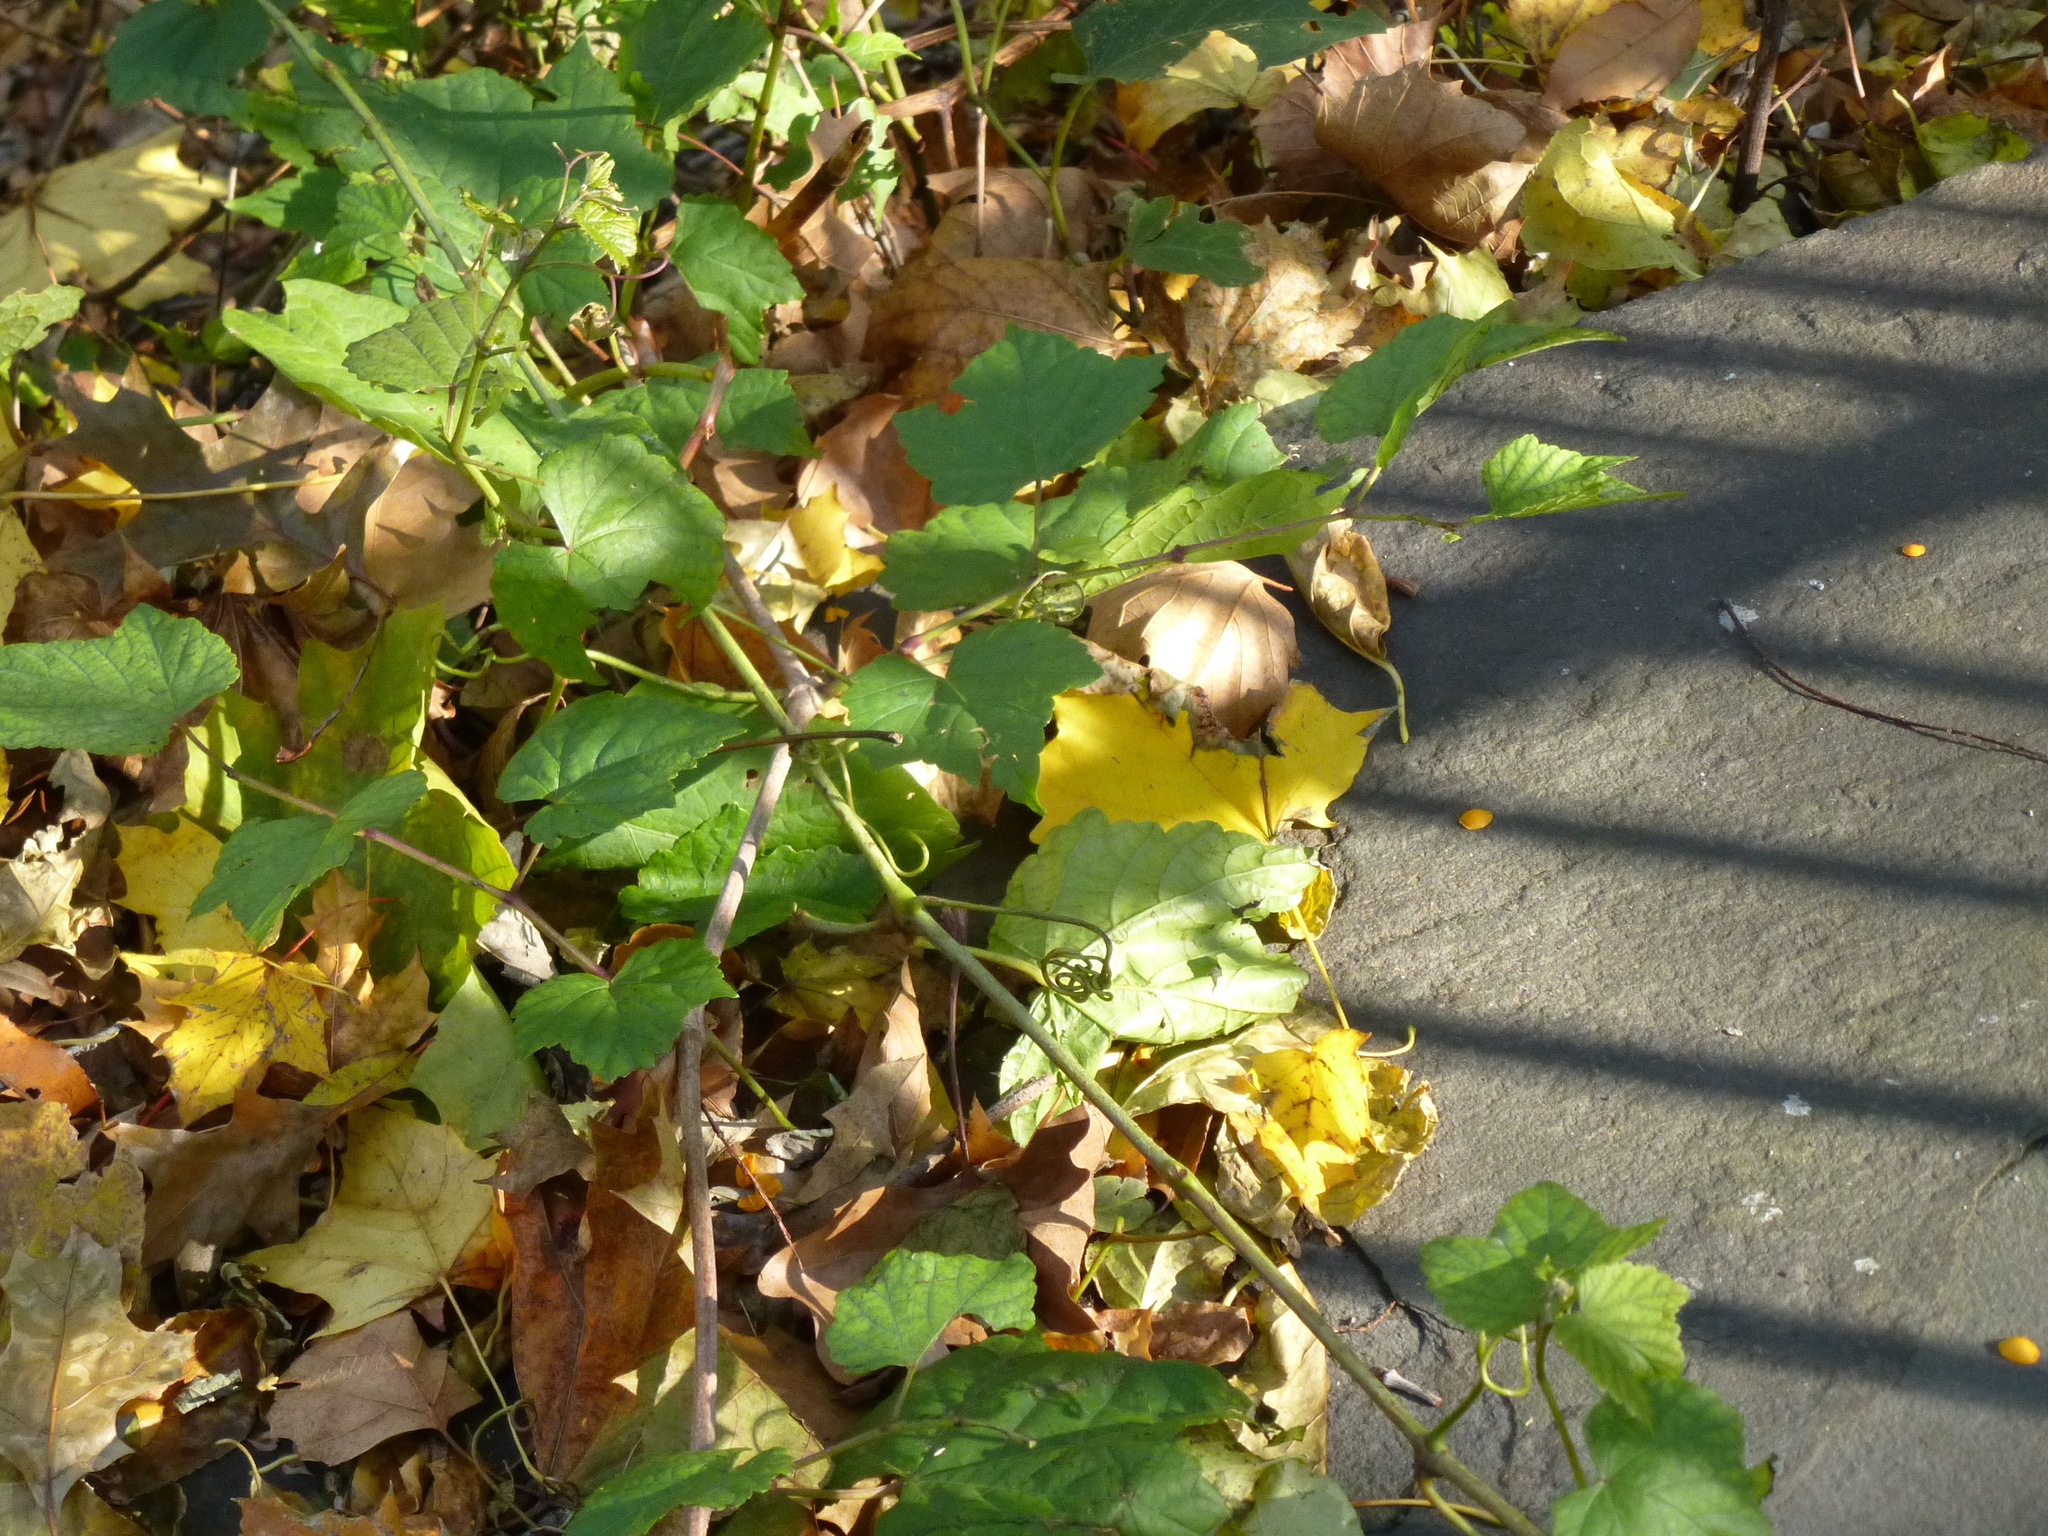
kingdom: Plantae
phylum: Tracheophyta
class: Magnoliopsida
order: Vitales
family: Vitaceae
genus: Ampelopsis
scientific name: Ampelopsis glandulosa
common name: Amur peppervine
